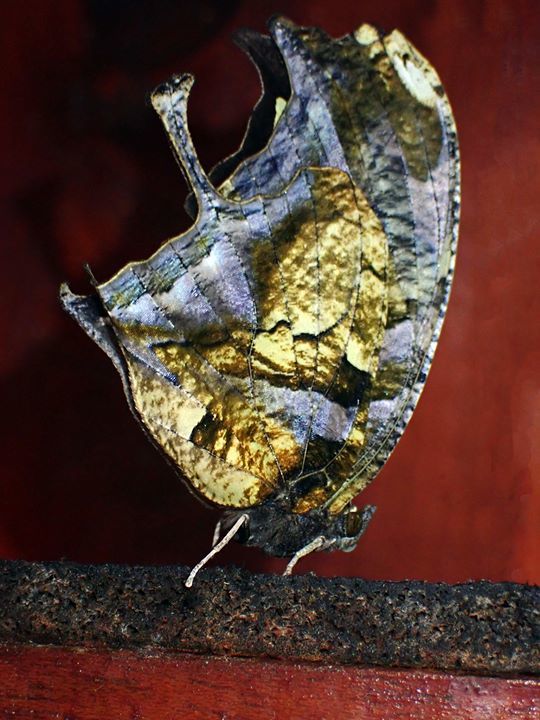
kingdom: Animalia
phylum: Arthropoda
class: Insecta
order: Lepidoptera
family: Nymphalidae
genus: Consul
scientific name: Consul fabius
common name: Tiger leafwing
